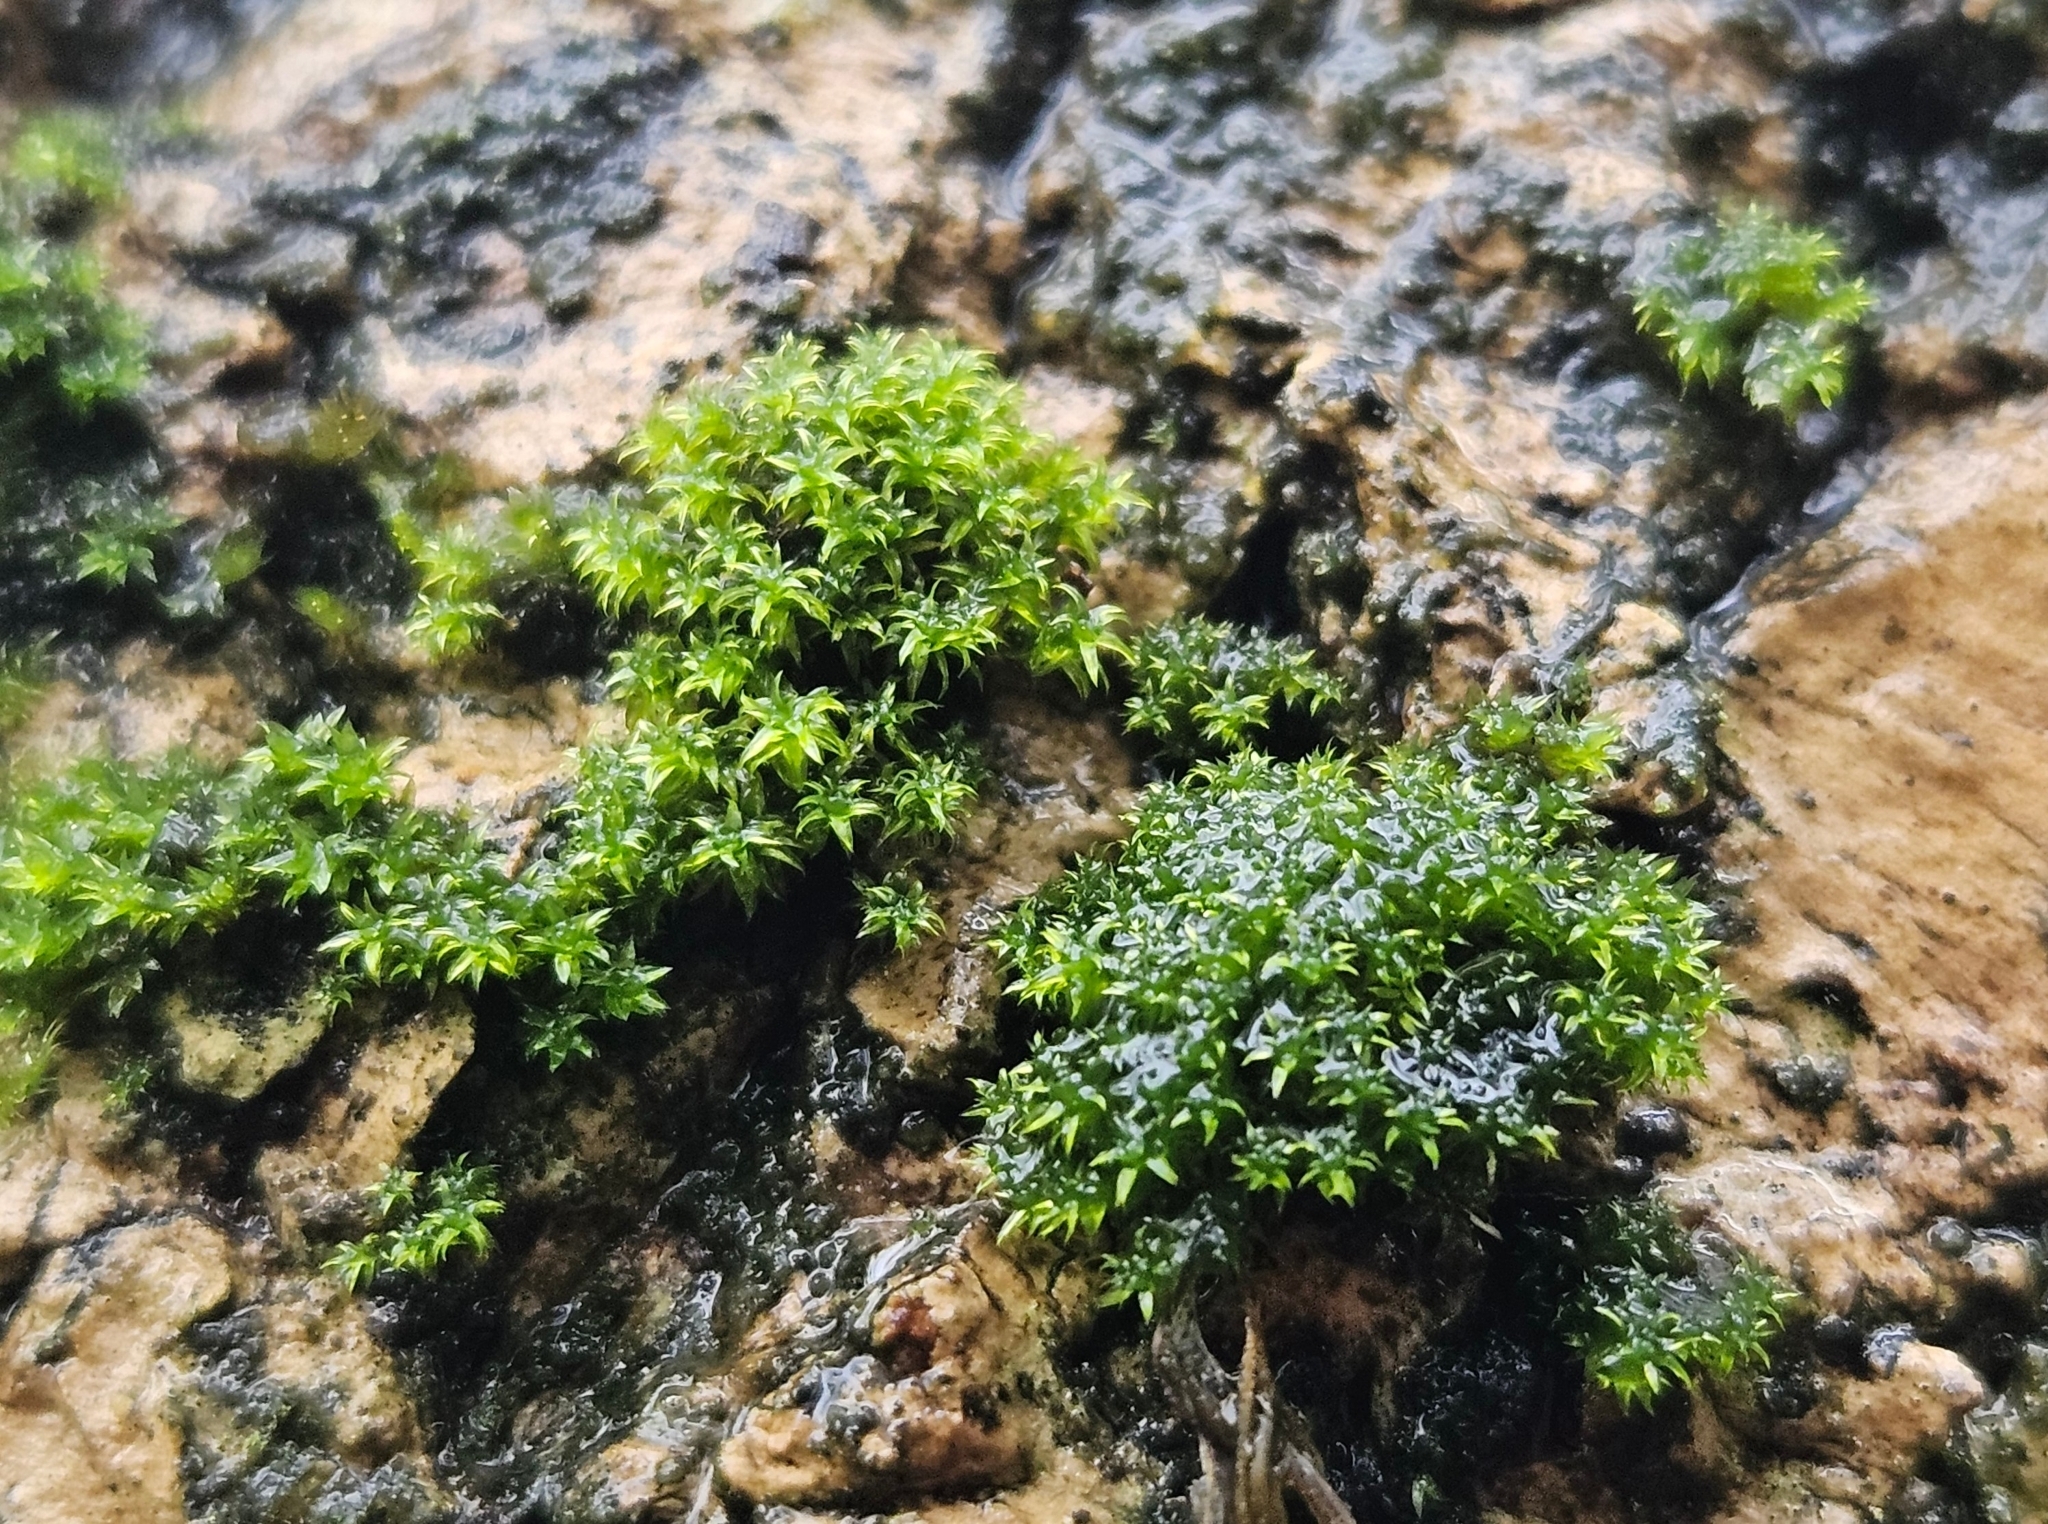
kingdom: Plantae
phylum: Bryophyta
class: Bryopsida
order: Orthotrichales
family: Orthotrichaceae
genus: Zygodon
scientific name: Zygodon viridissimus
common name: Green yoke moss
